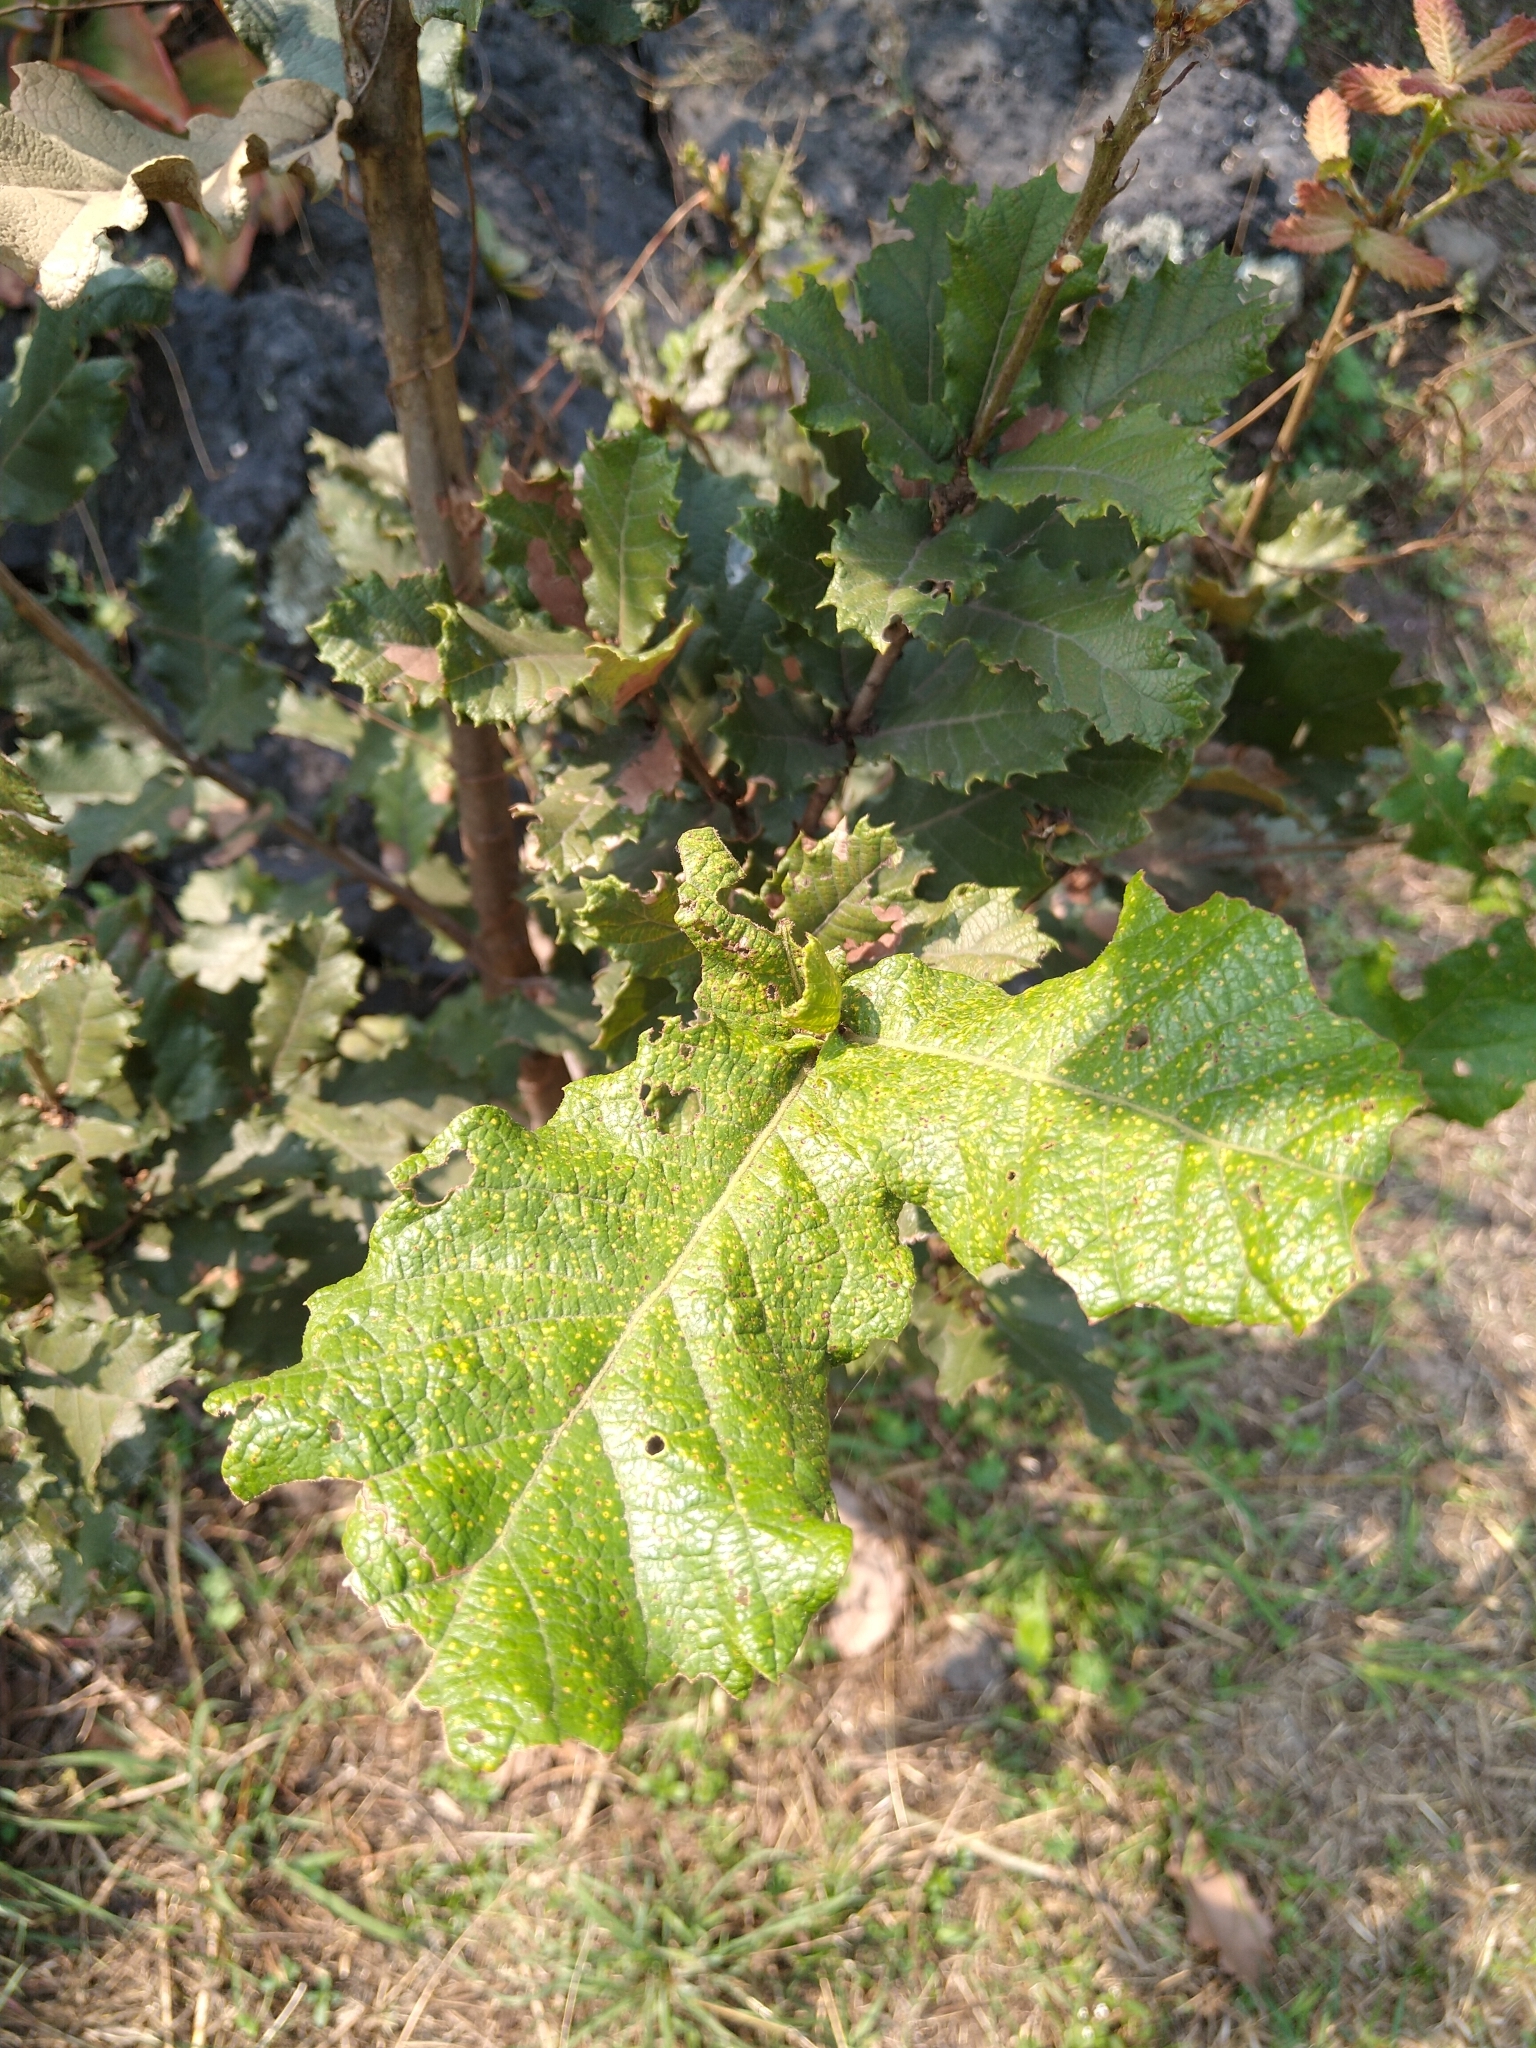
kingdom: Plantae
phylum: Tracheophyta
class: Magnoliopsida
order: Fagales
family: Fagaceae
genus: Quercus
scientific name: Quercus rugosa
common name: Netleaf oak
